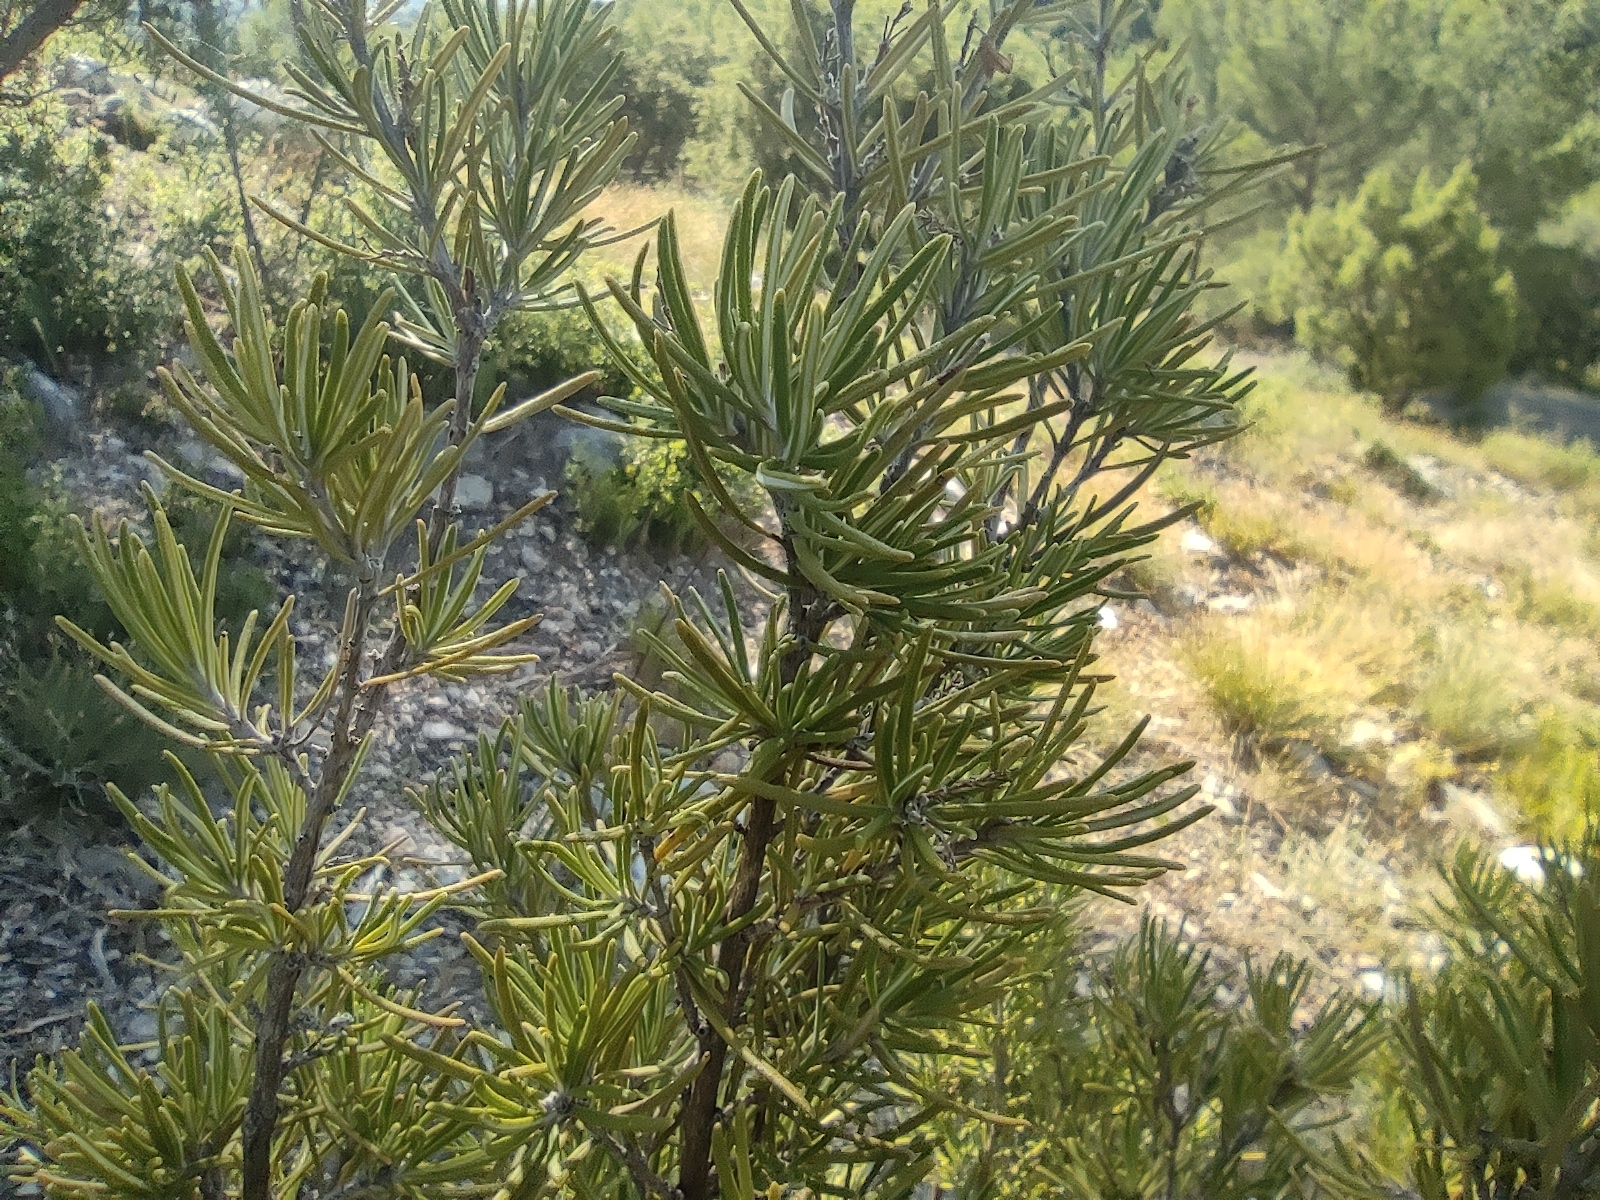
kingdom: Plantae
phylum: Tracheophyta
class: Magnoliopsida
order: Lamiales
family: Lamiaceae
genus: Salvia
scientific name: Salvia rosmarinus
